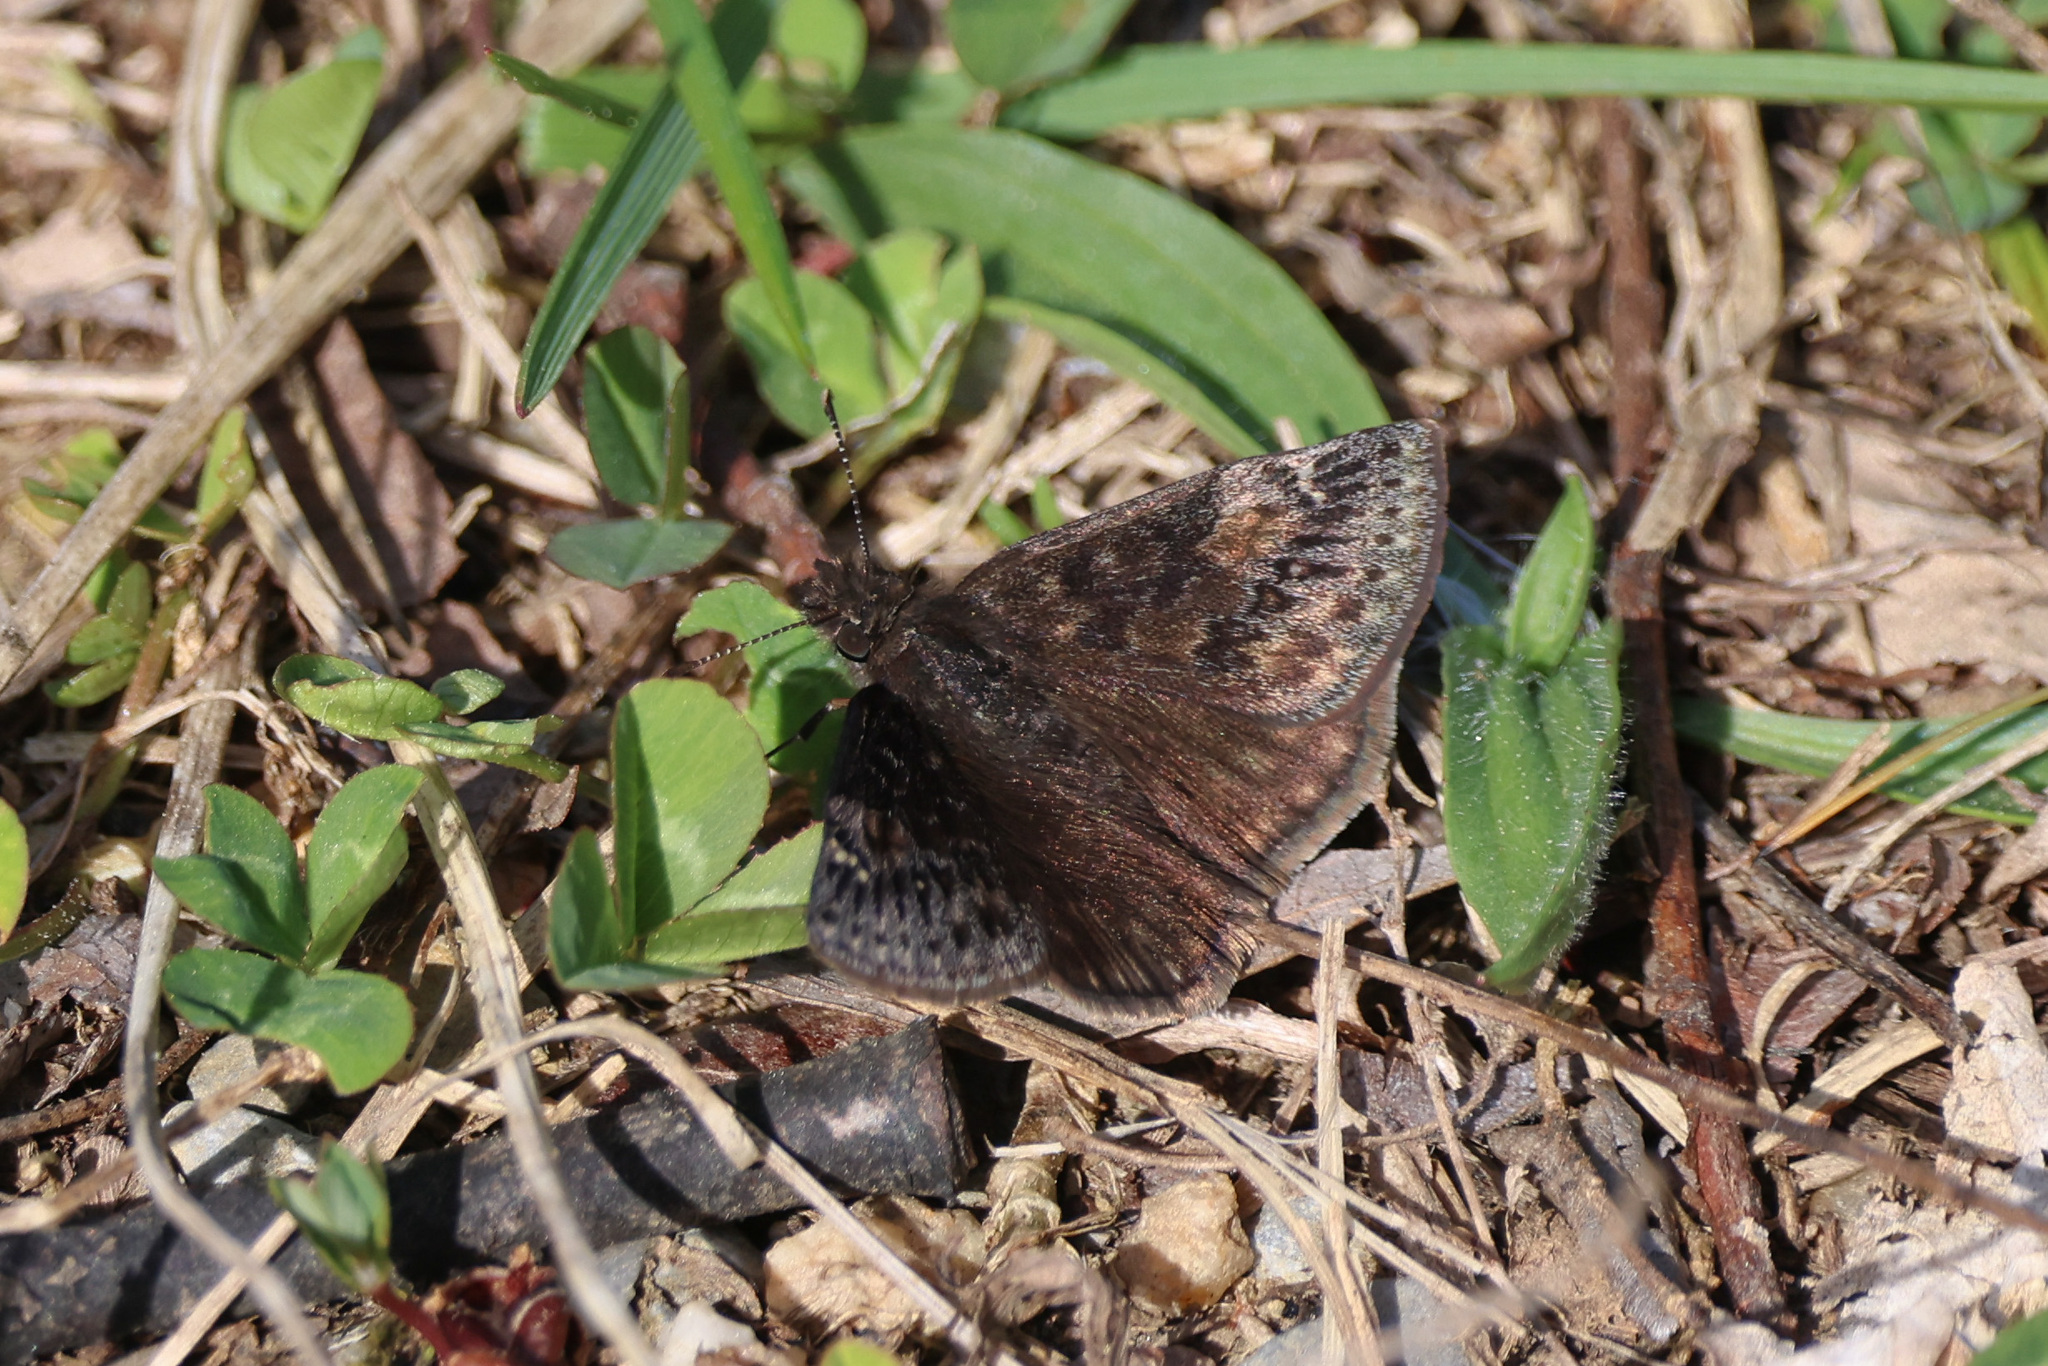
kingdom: Animalia
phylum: Arthropoda
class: Insecta
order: Lepidoptera
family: Hesperiidae
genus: Erynnis
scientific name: Erynnis baptisiae
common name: Wild indigo duskywing
